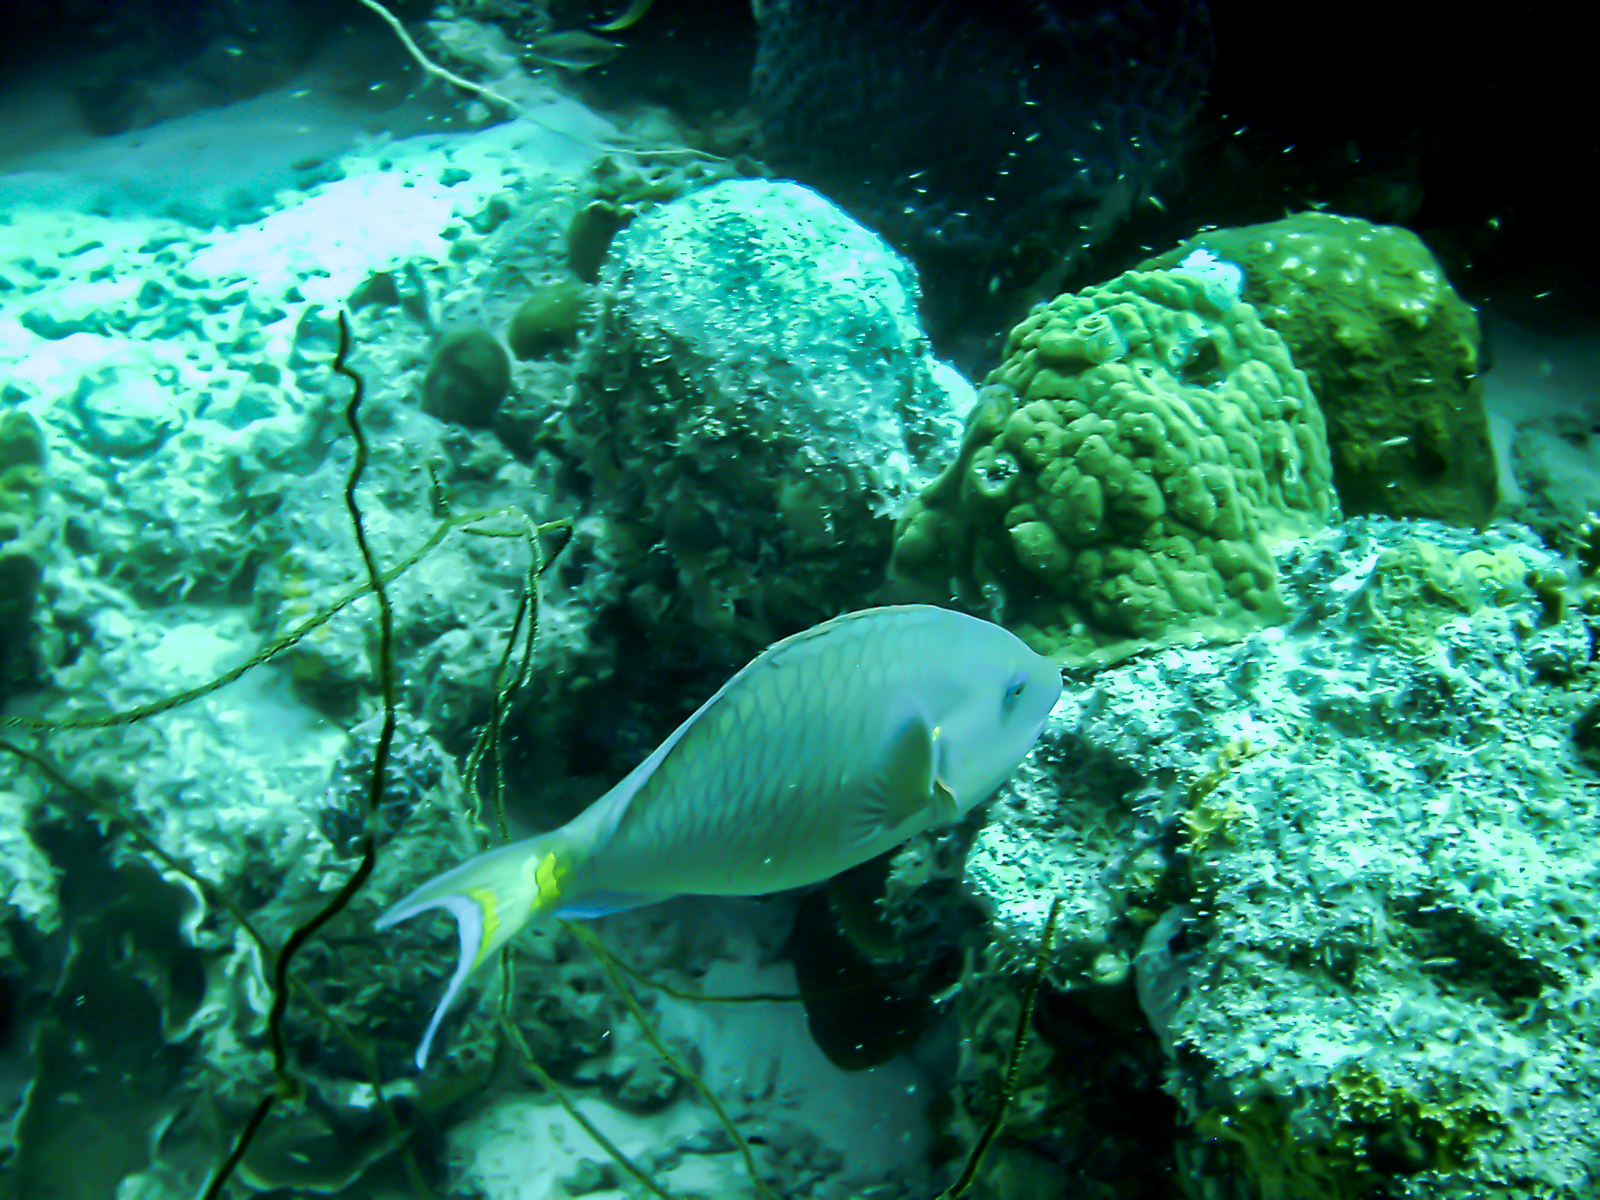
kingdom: Animalia
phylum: Chordata
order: Perciformes
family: Scaridae
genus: Sparisoma
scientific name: Sparisoma viride
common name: Stoplight parrotfish
